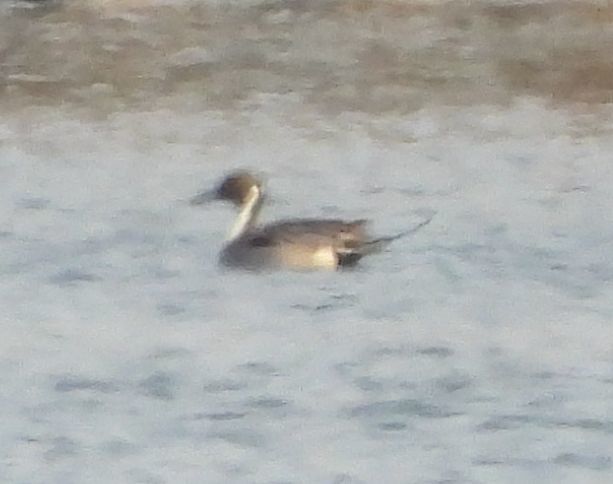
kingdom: Animalia
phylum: Chordata
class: Aves
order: Anseriformes
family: Anatidae
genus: Anas
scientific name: Anas acuta
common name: Northern pintail
